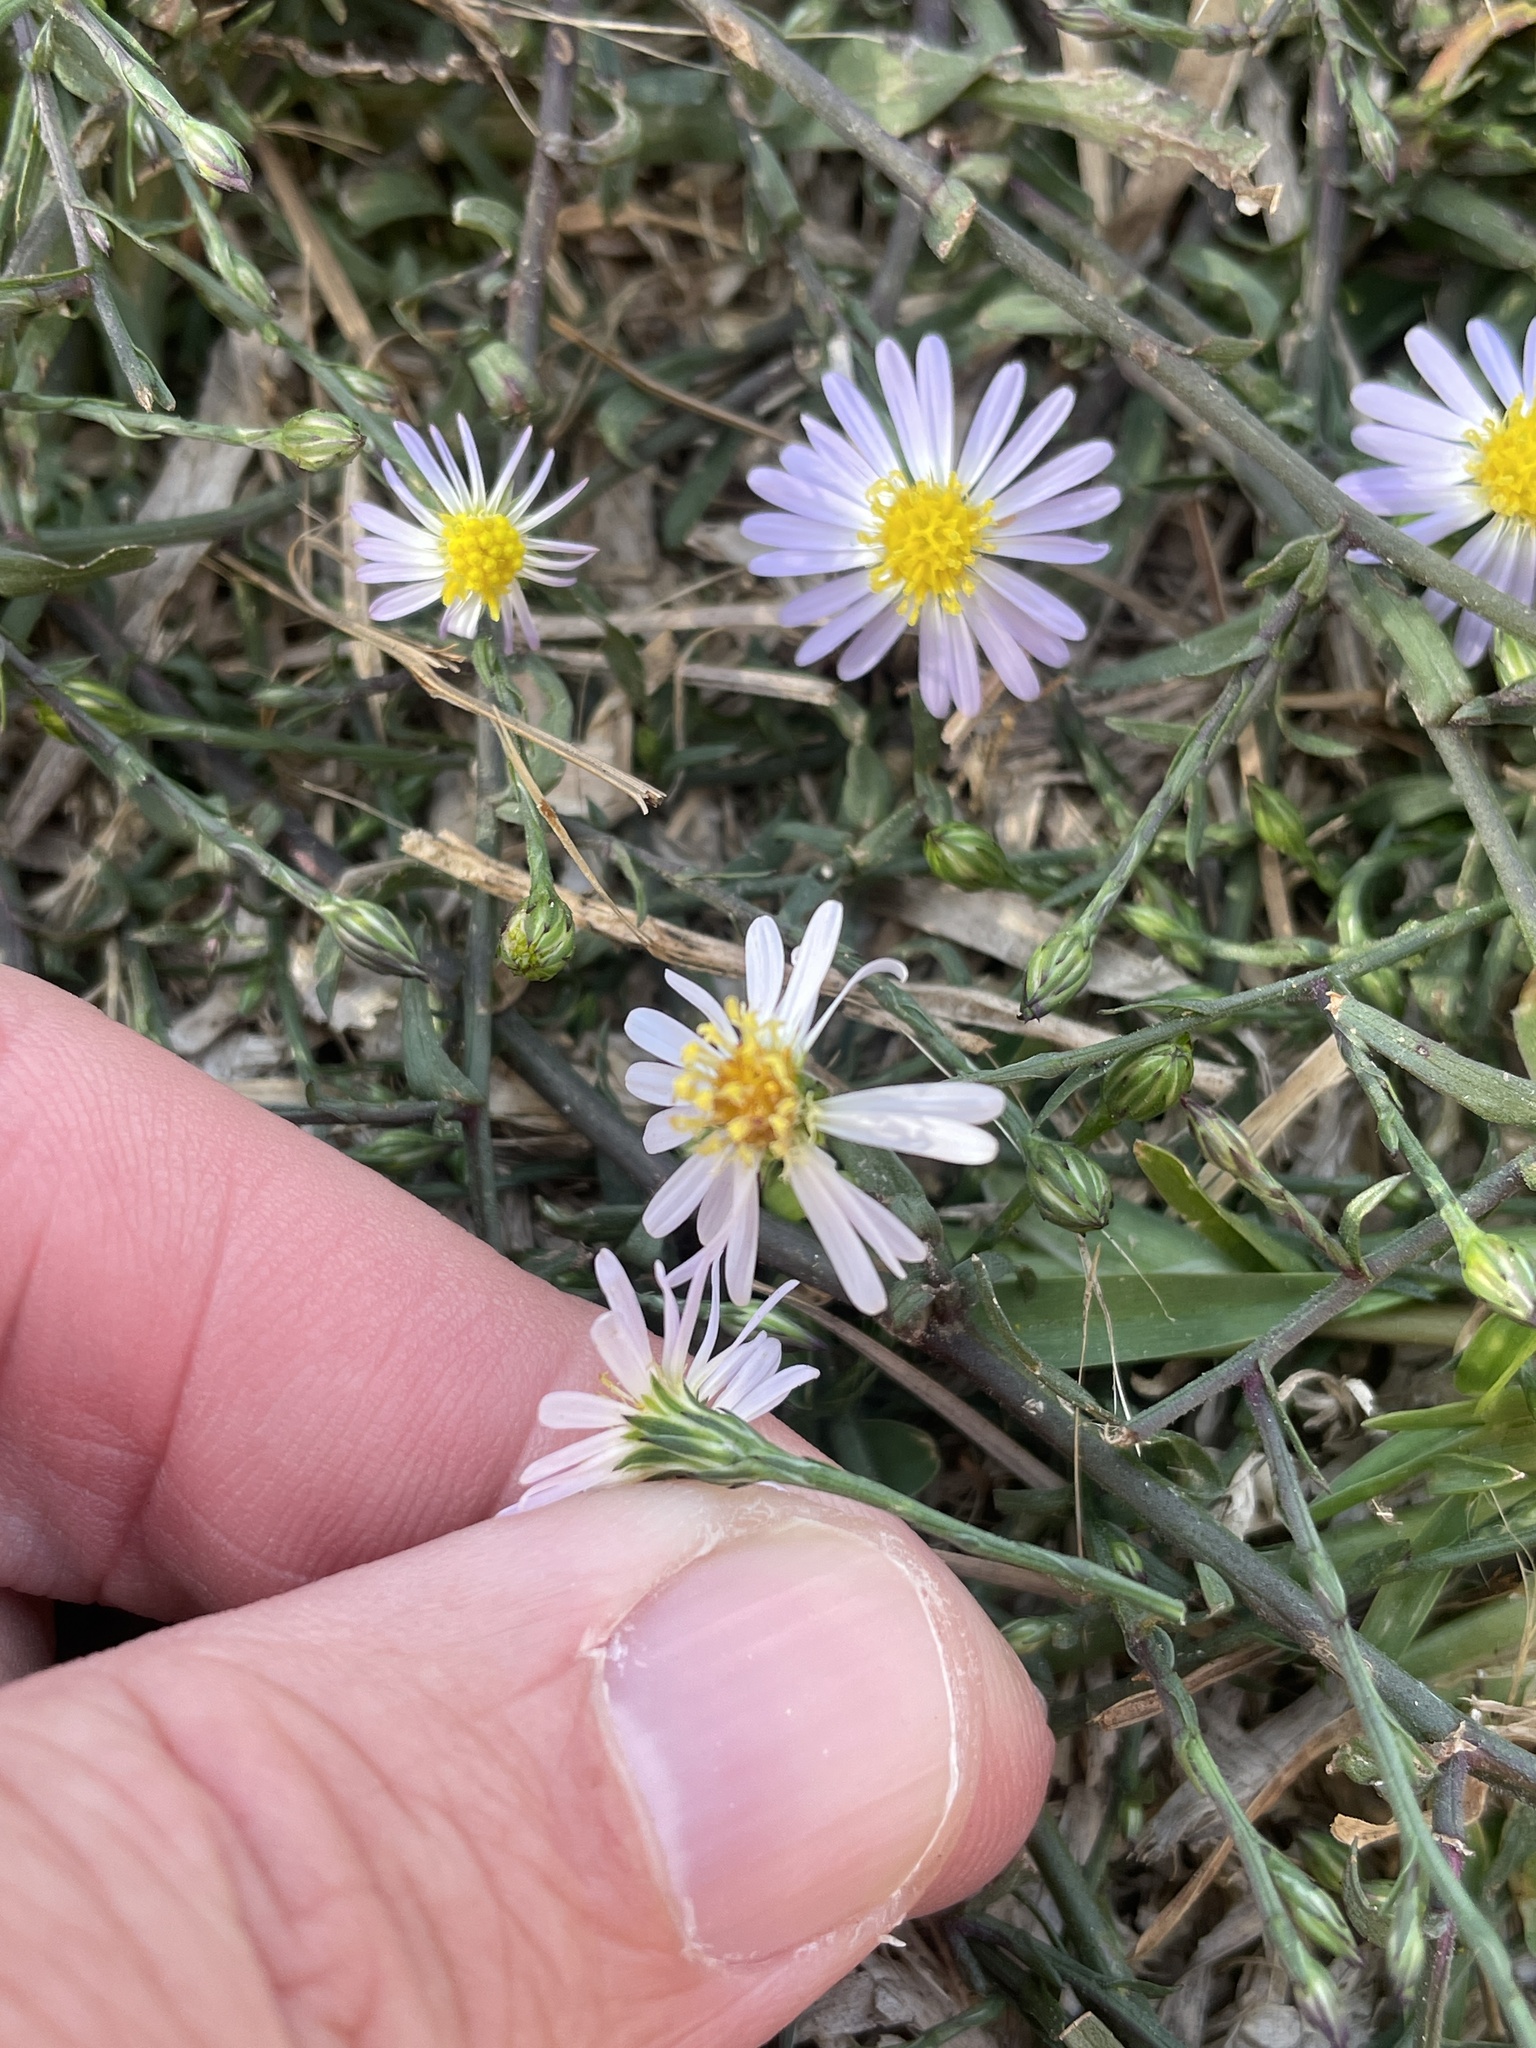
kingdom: Plantae
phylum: Tracheophyta
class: Magnoliopsida
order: Asterales
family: Asteraceae
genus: Symphyotrichum
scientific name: Symphyotrichum divaricatum
